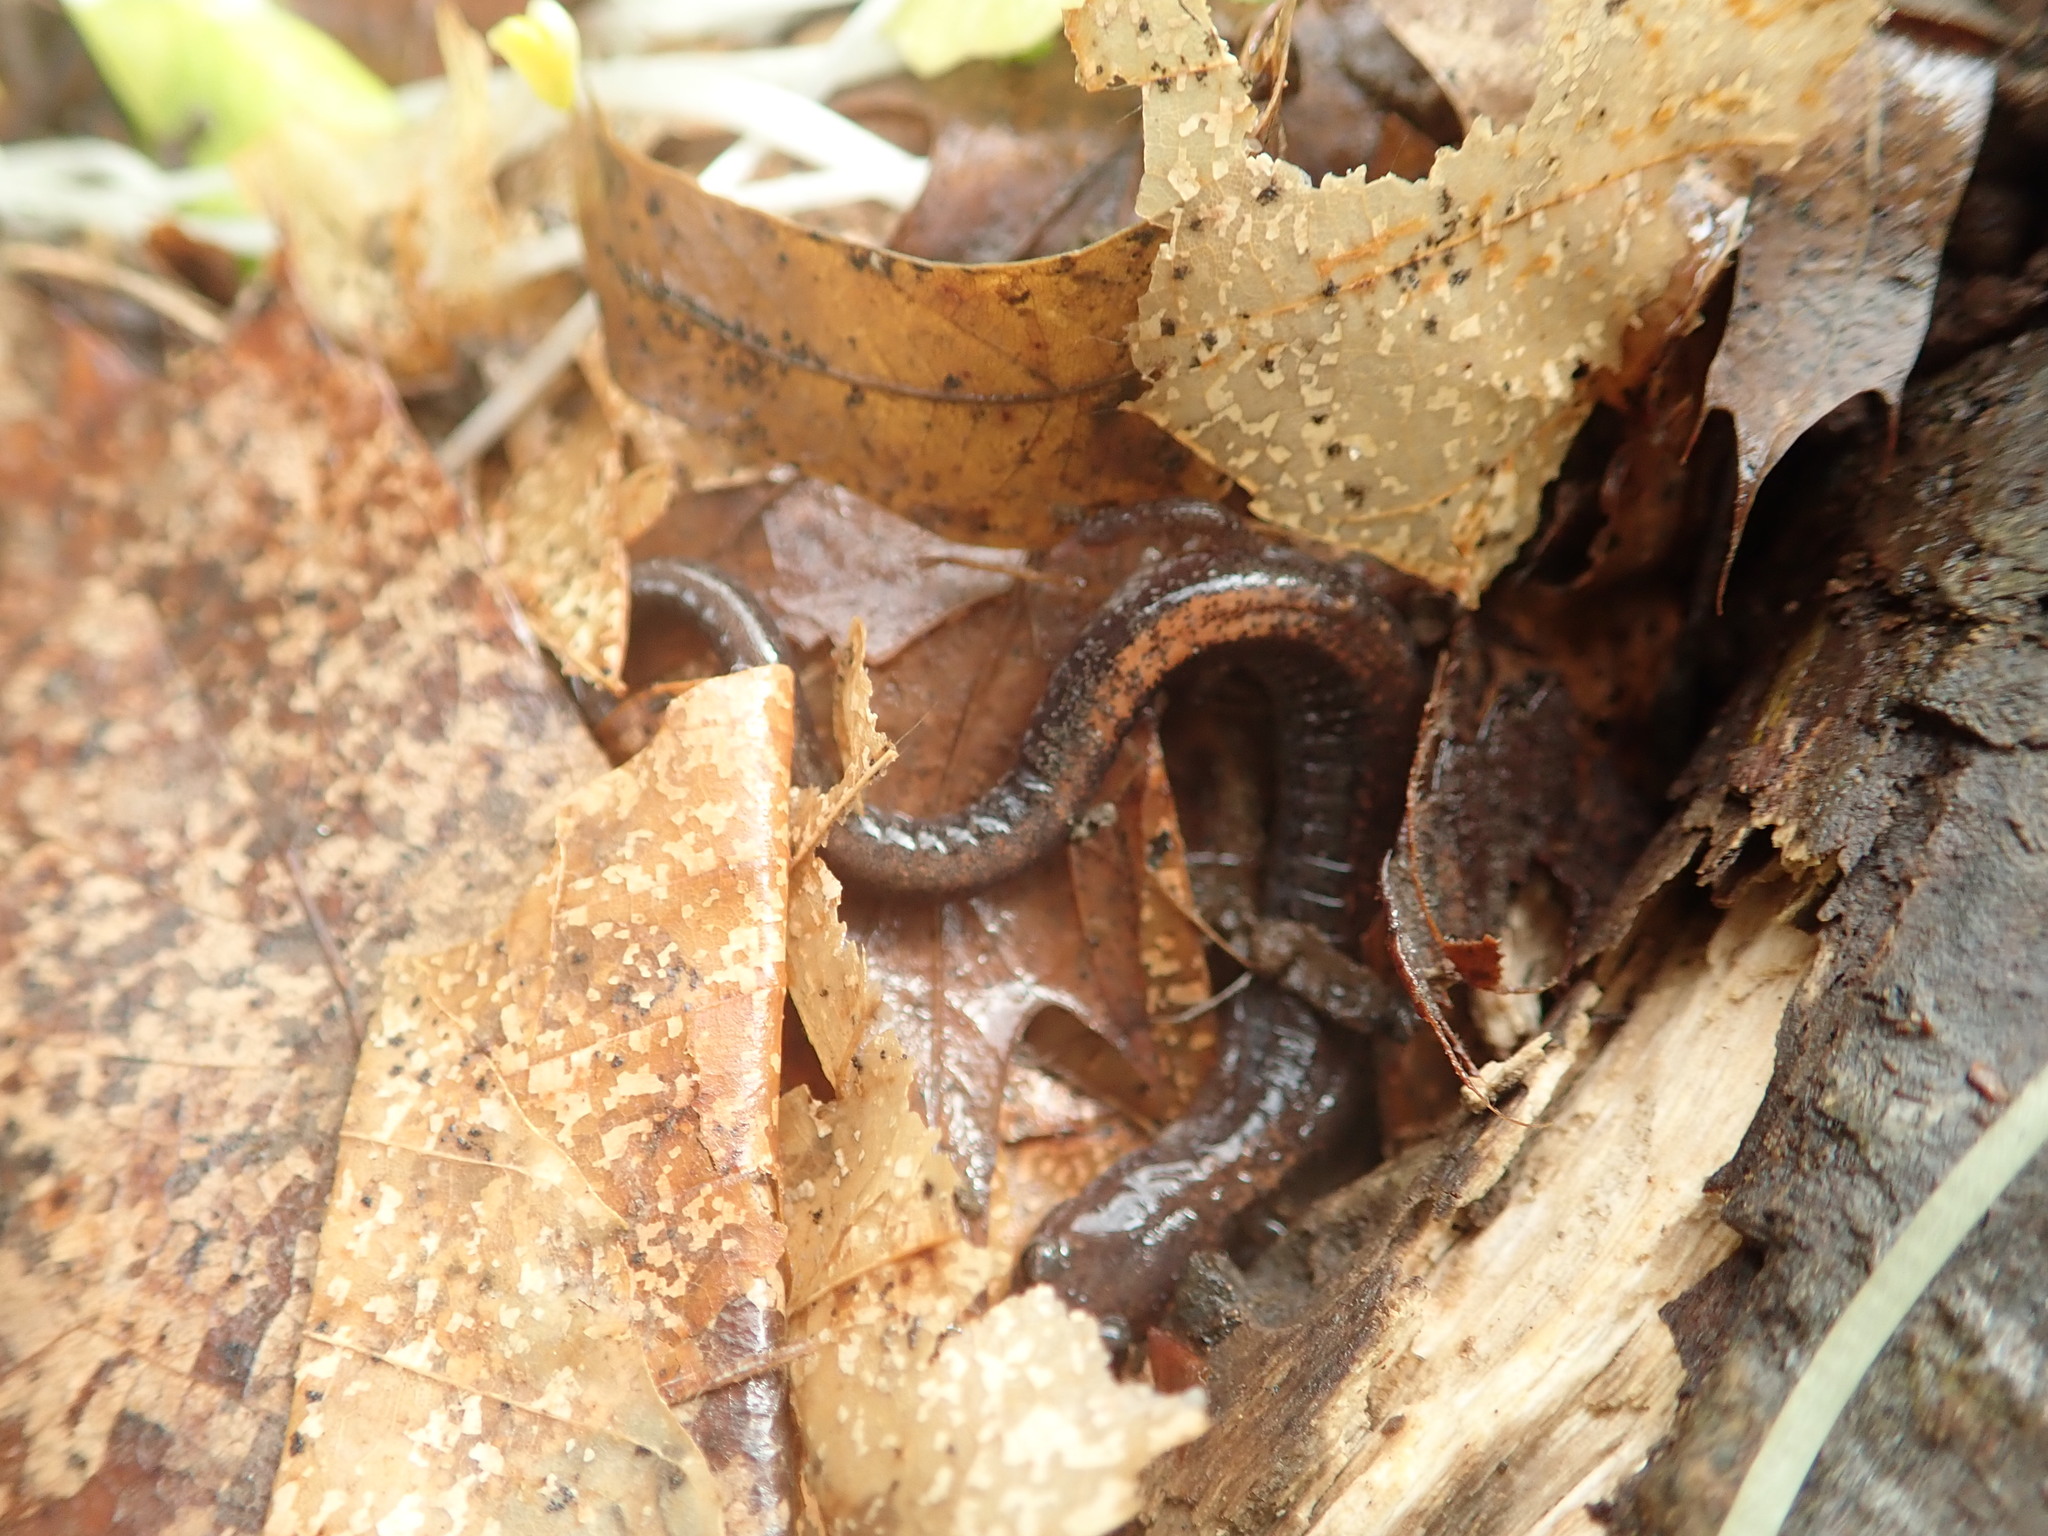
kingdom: Animalia
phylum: Chordata
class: Amphibia
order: Caudata
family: Plethodontidae
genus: Plethodon
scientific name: Plethodon cinereus
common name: Redback salamander
